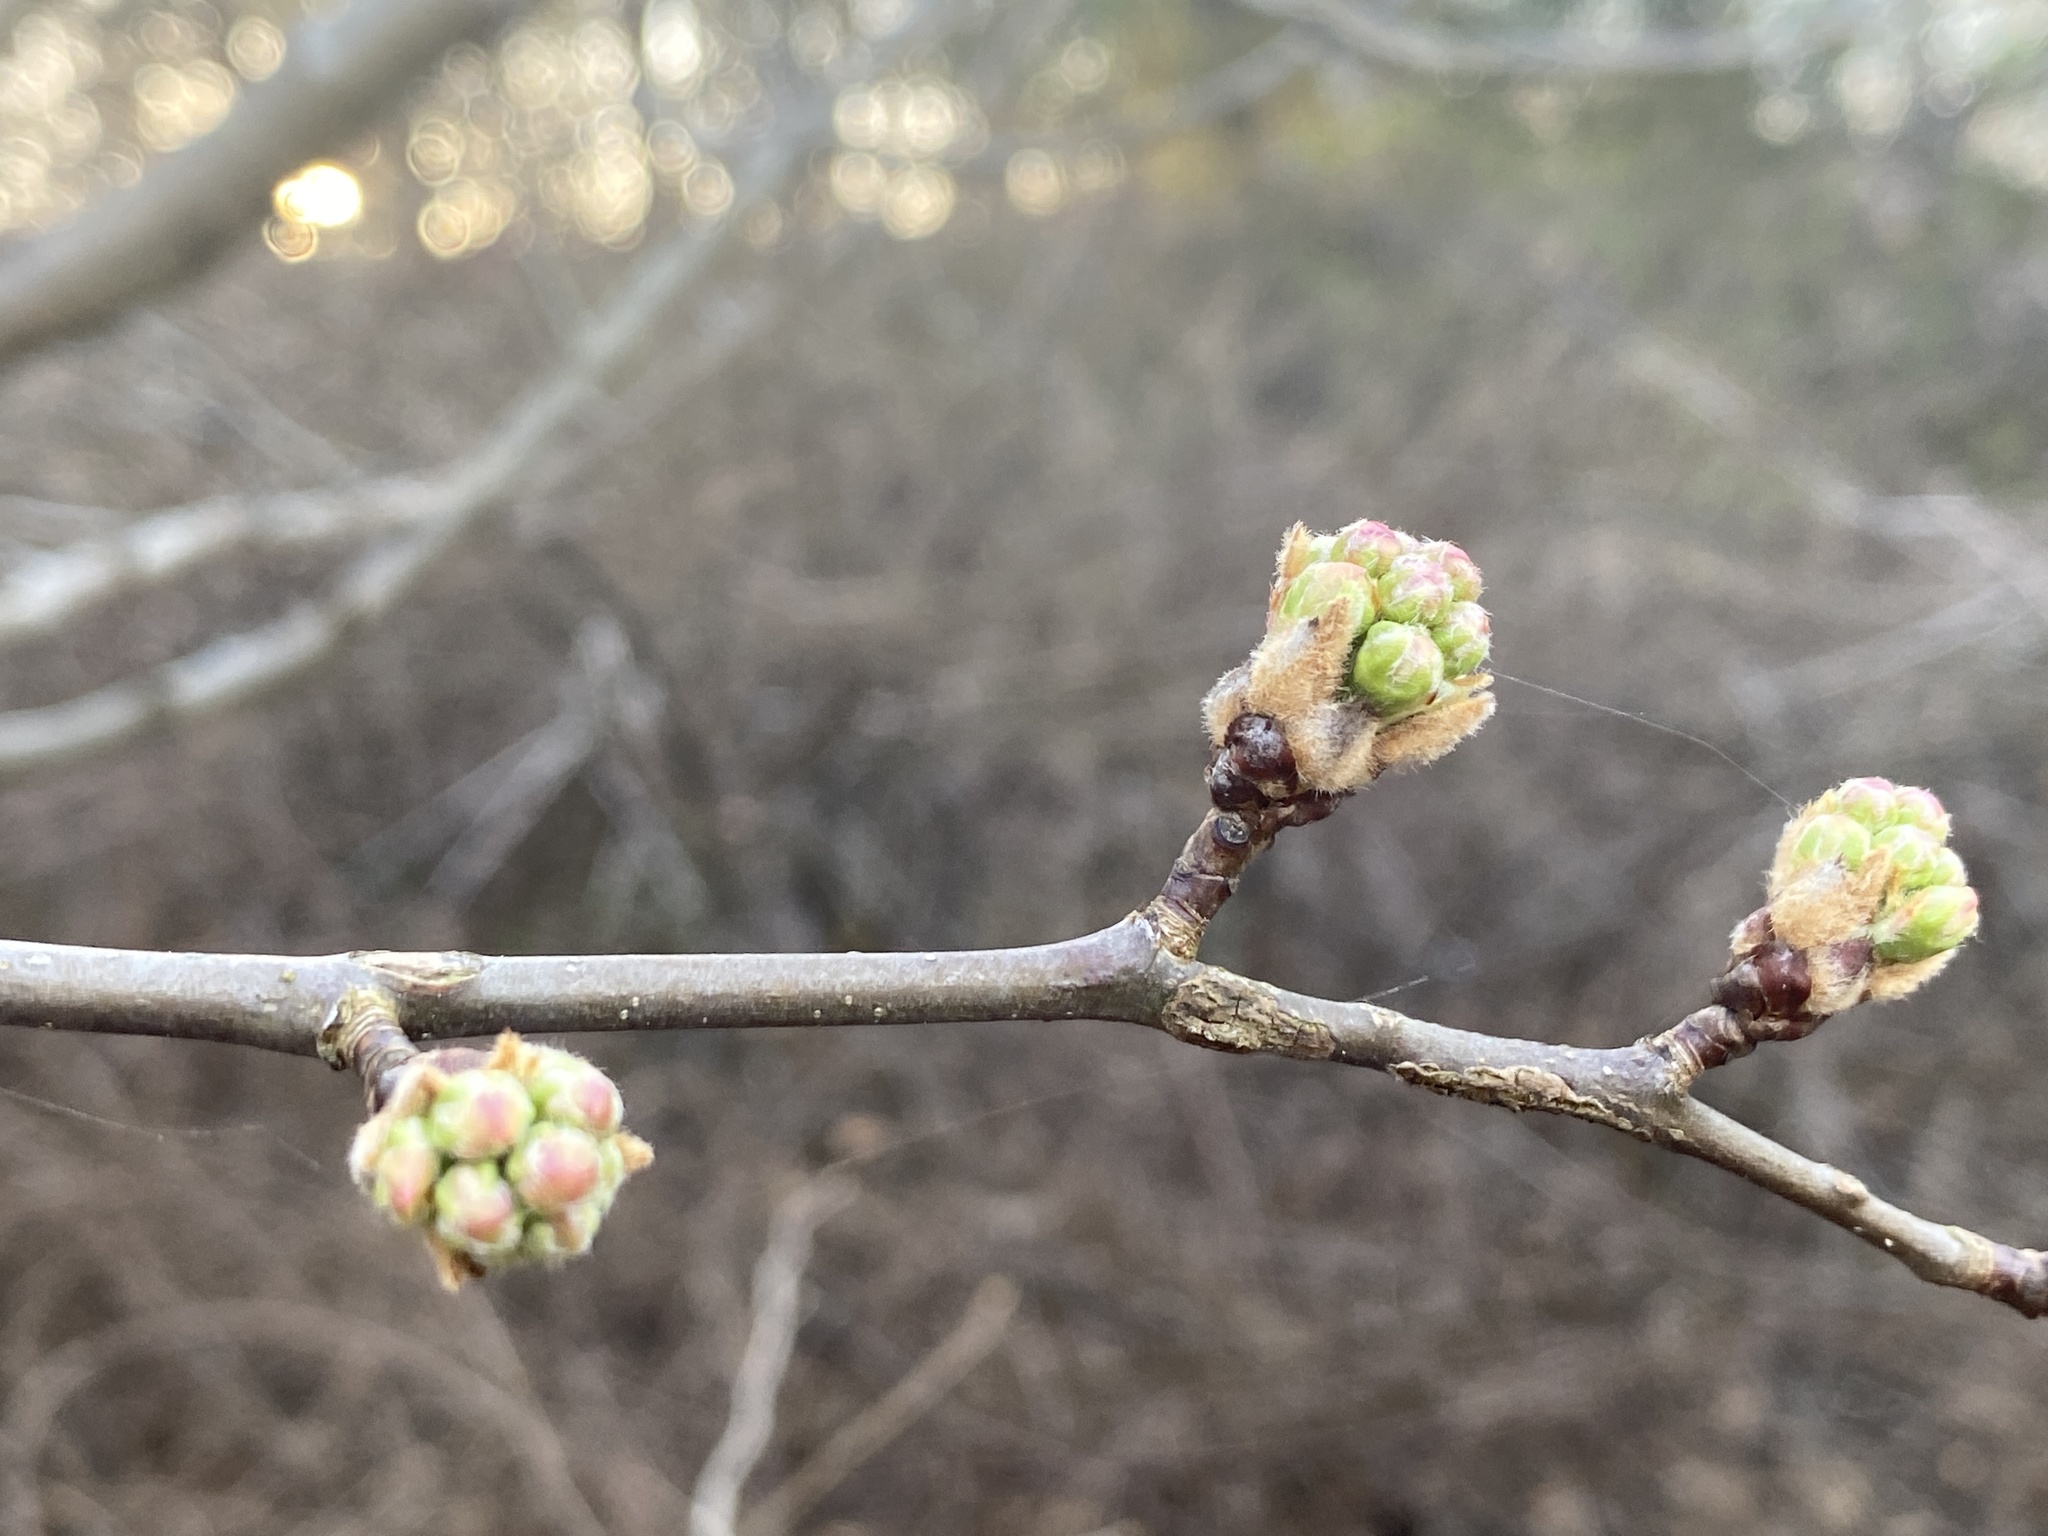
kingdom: Plantae
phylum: Tracheophyta
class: Magnoliopsida
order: Rosales
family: Rosaceae
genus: Pyrus
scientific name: Pyrus calleryana
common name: Callery pear
